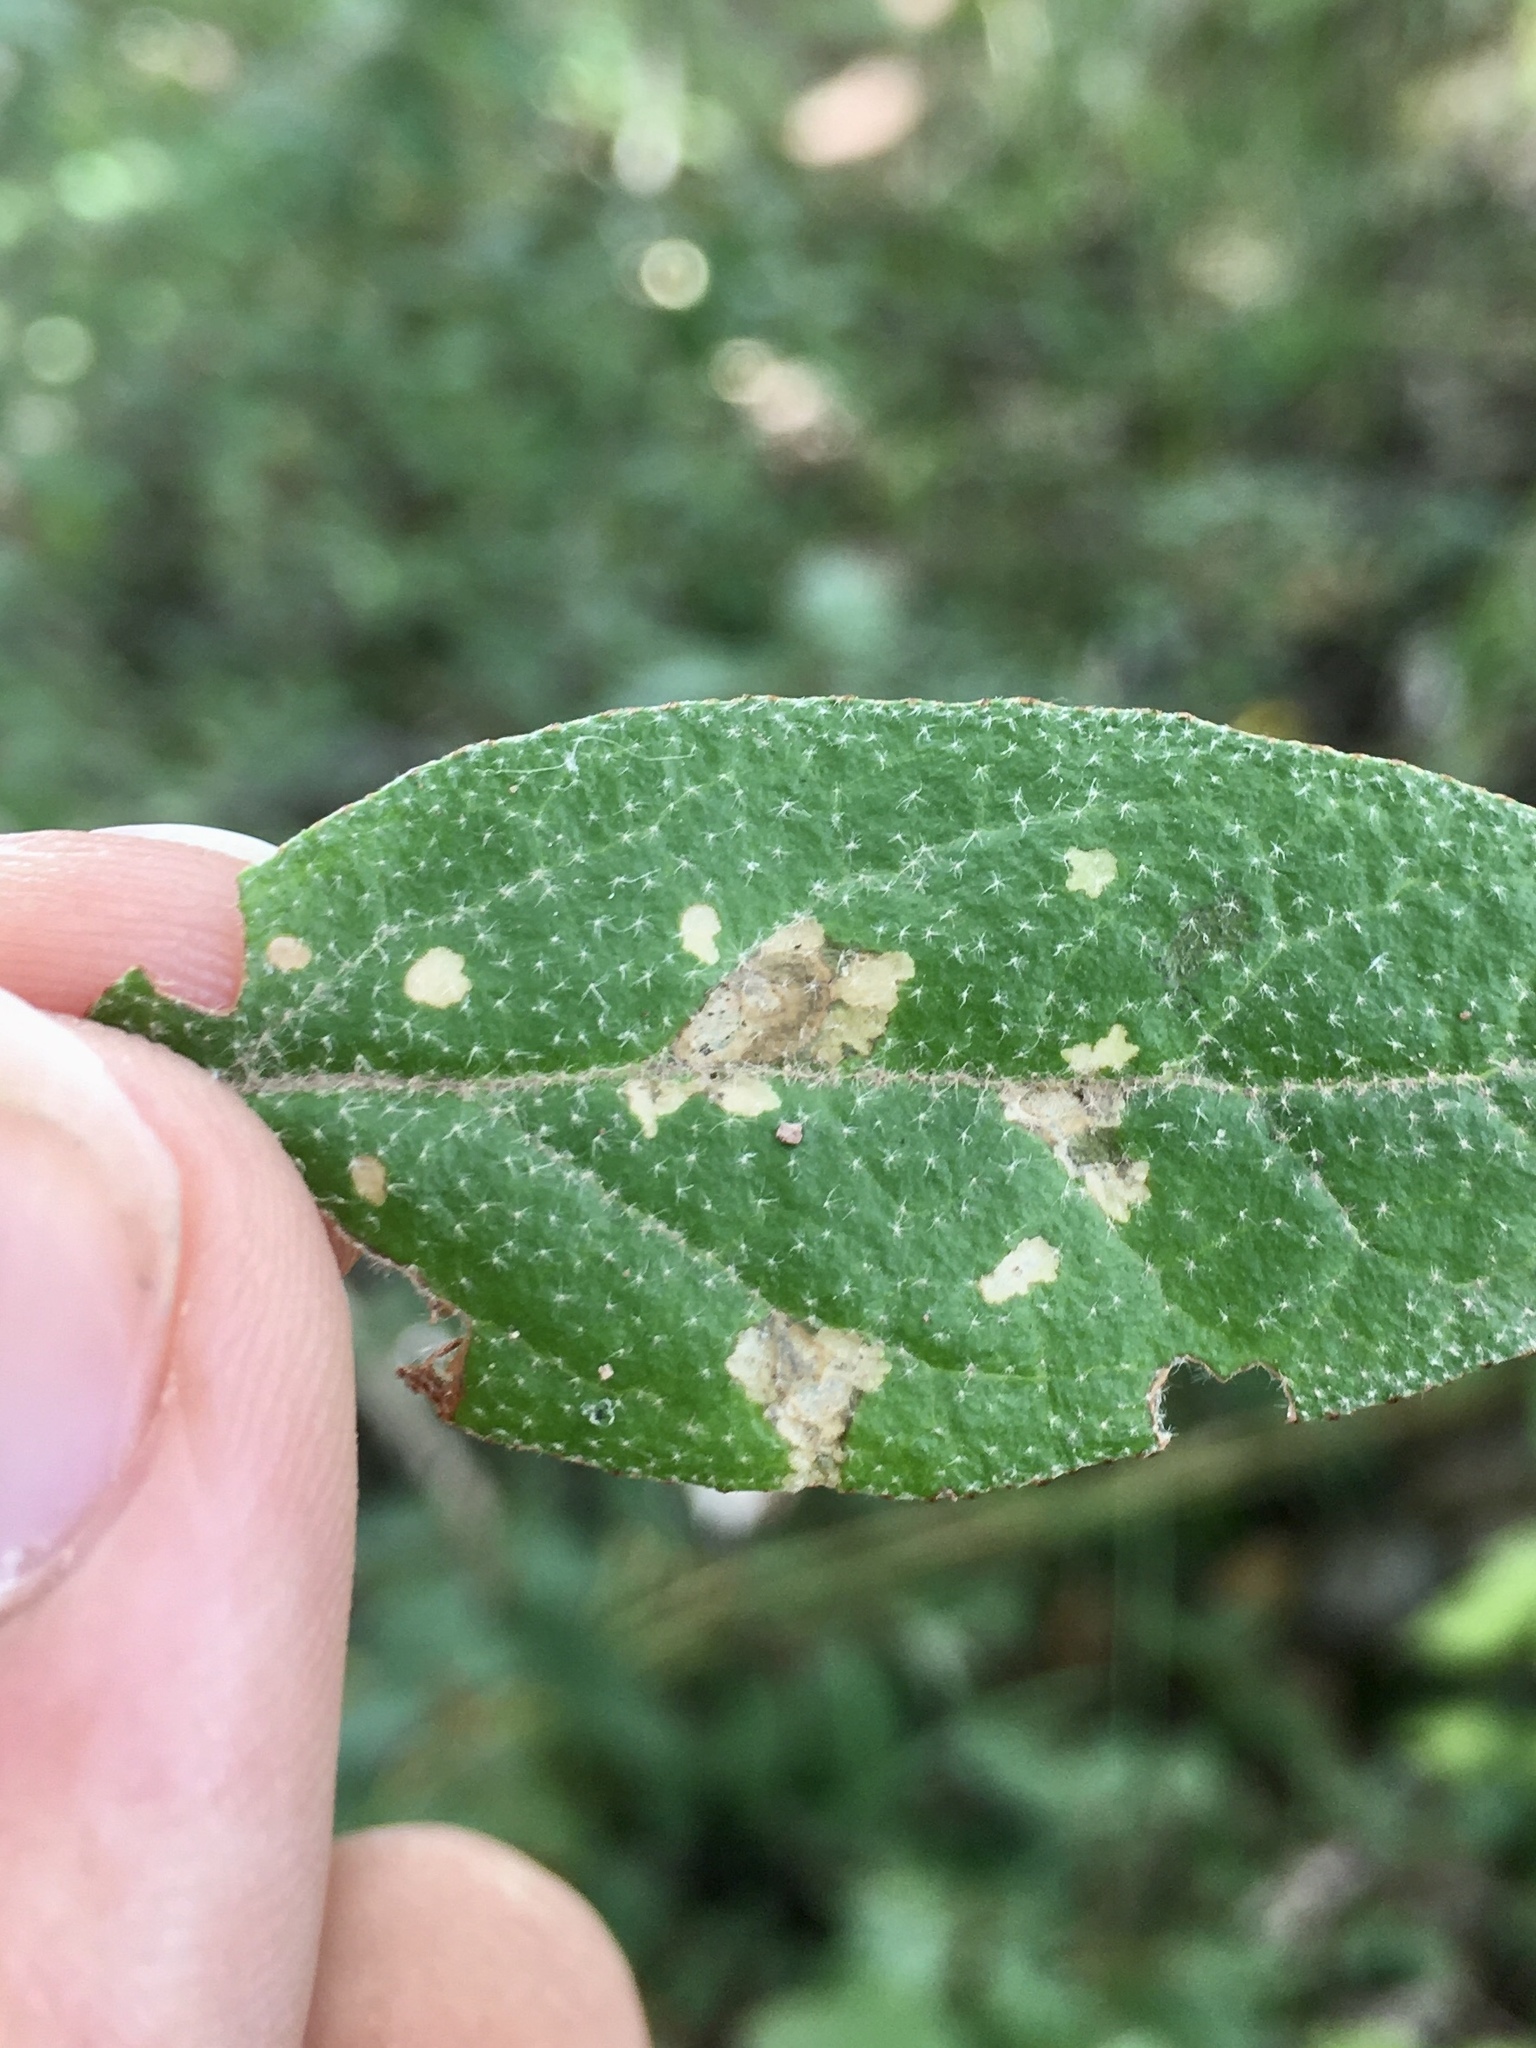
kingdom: Animalia
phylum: Arthropoda
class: Insecta
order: Lepidoptera
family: Gelechiidae
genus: Gnorimoschema
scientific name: Gnorimoschema shepherdiae
